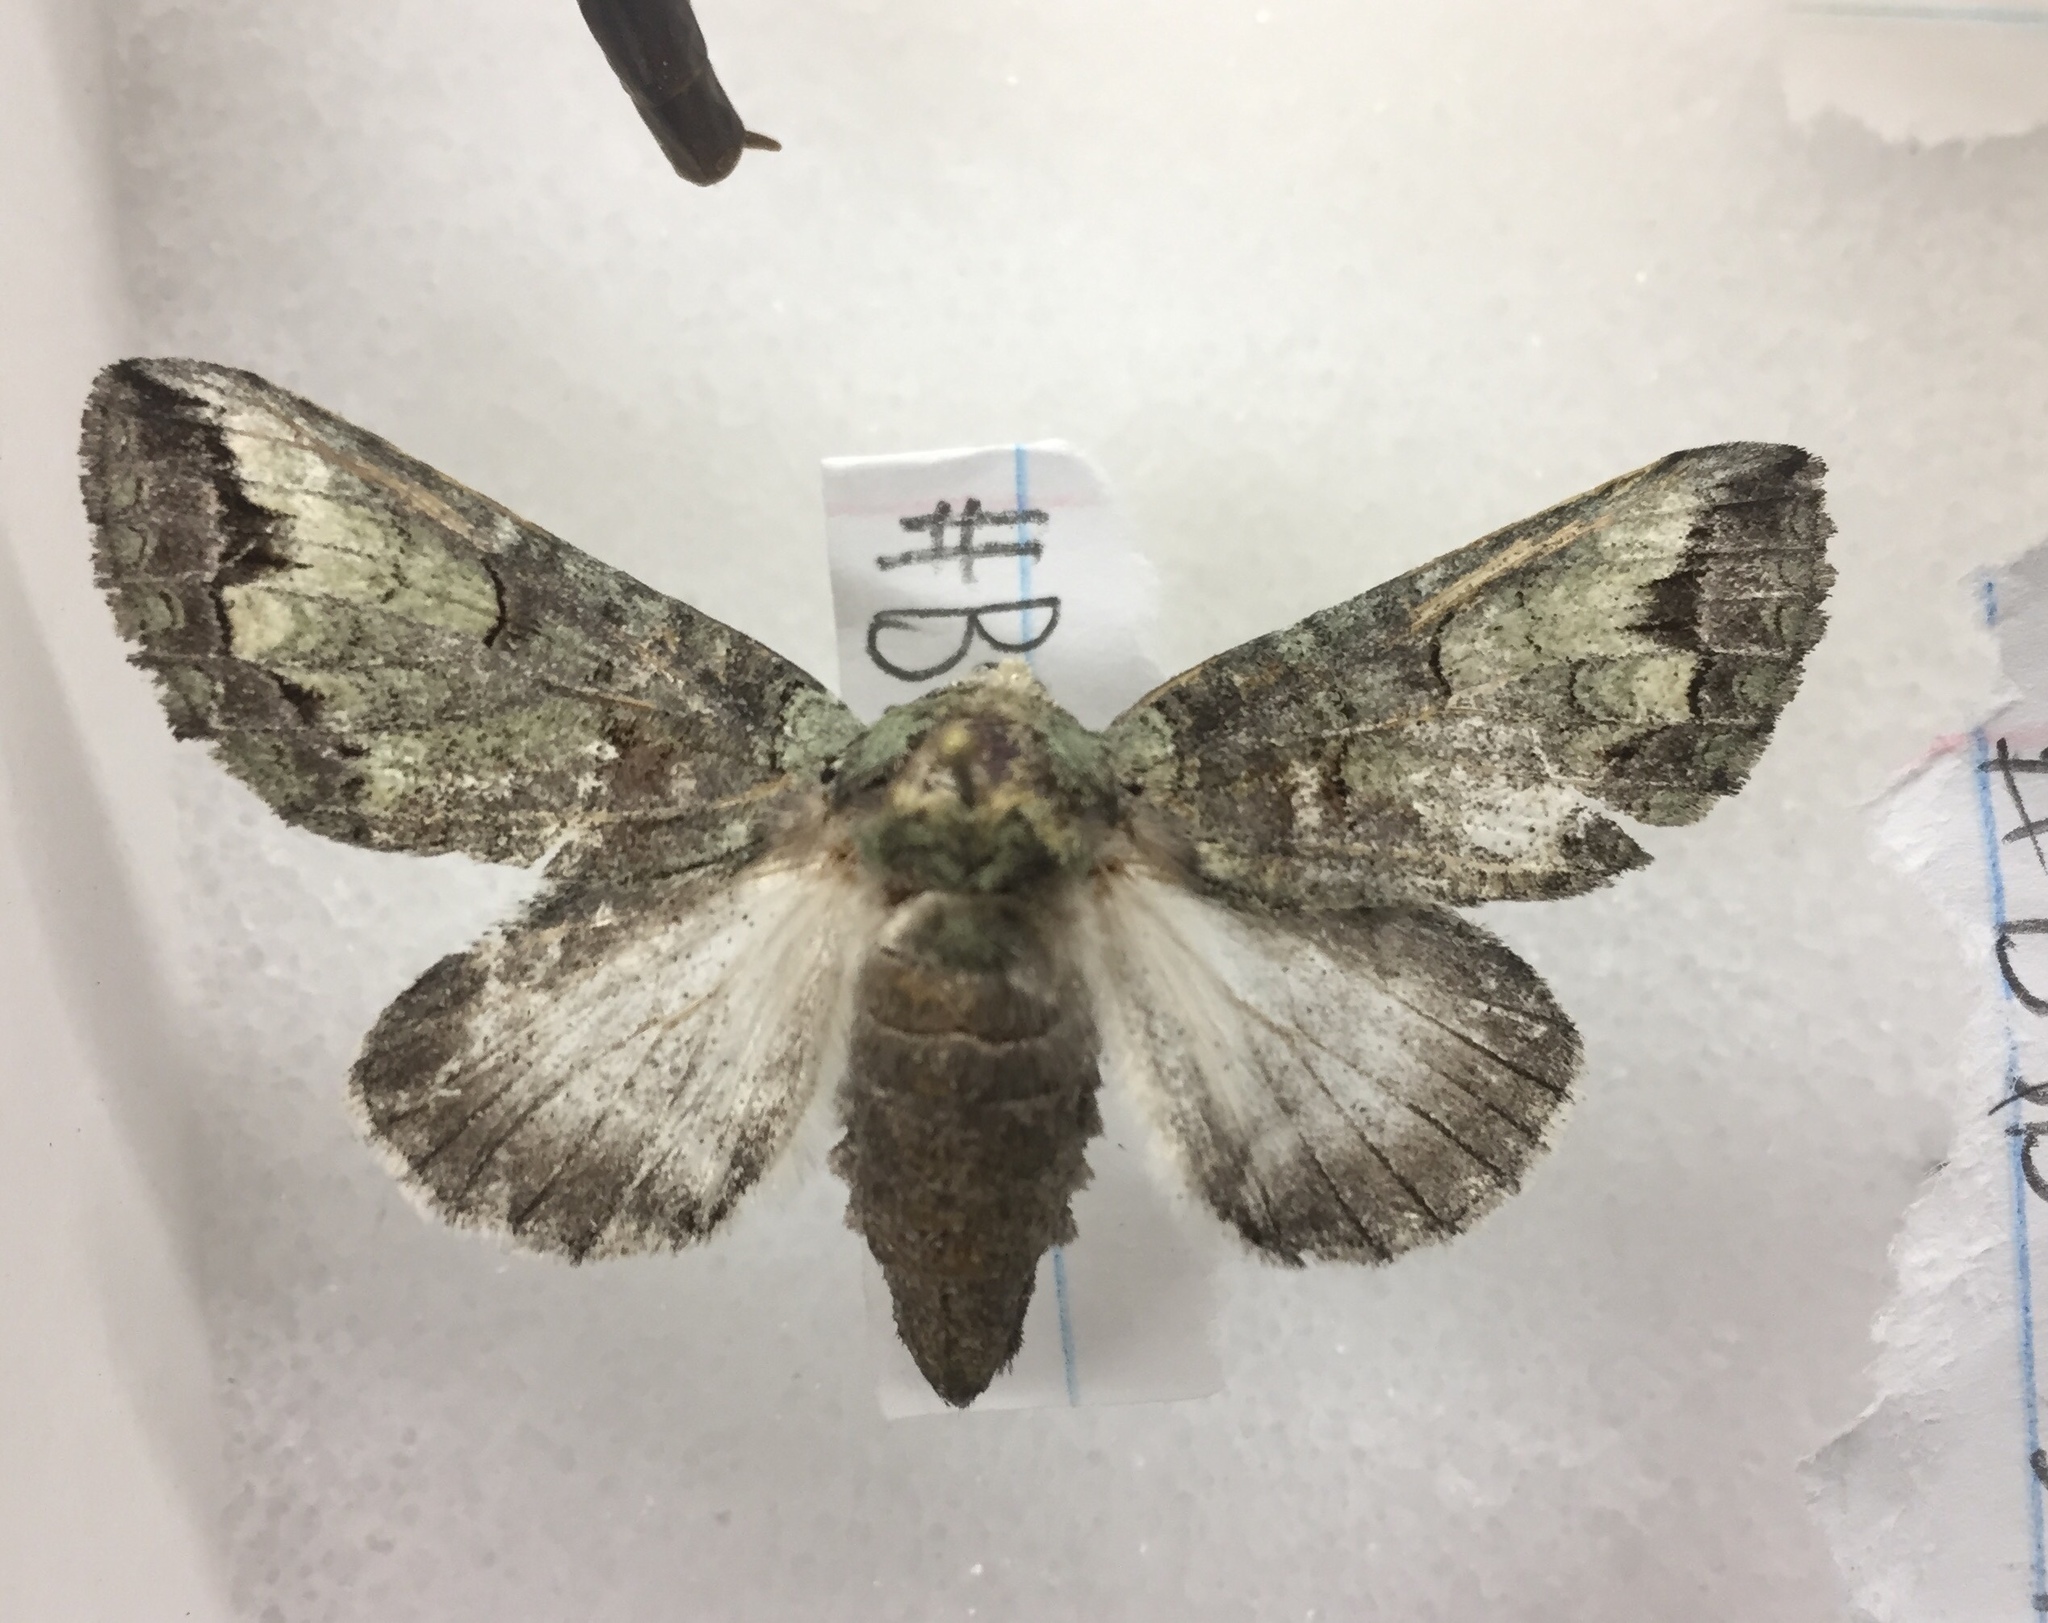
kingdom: Animalia
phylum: Arthropoda
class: Insecta
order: Lepidoptera
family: Notodontidae
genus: Heterocampa
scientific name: Heterocampa astartoides
